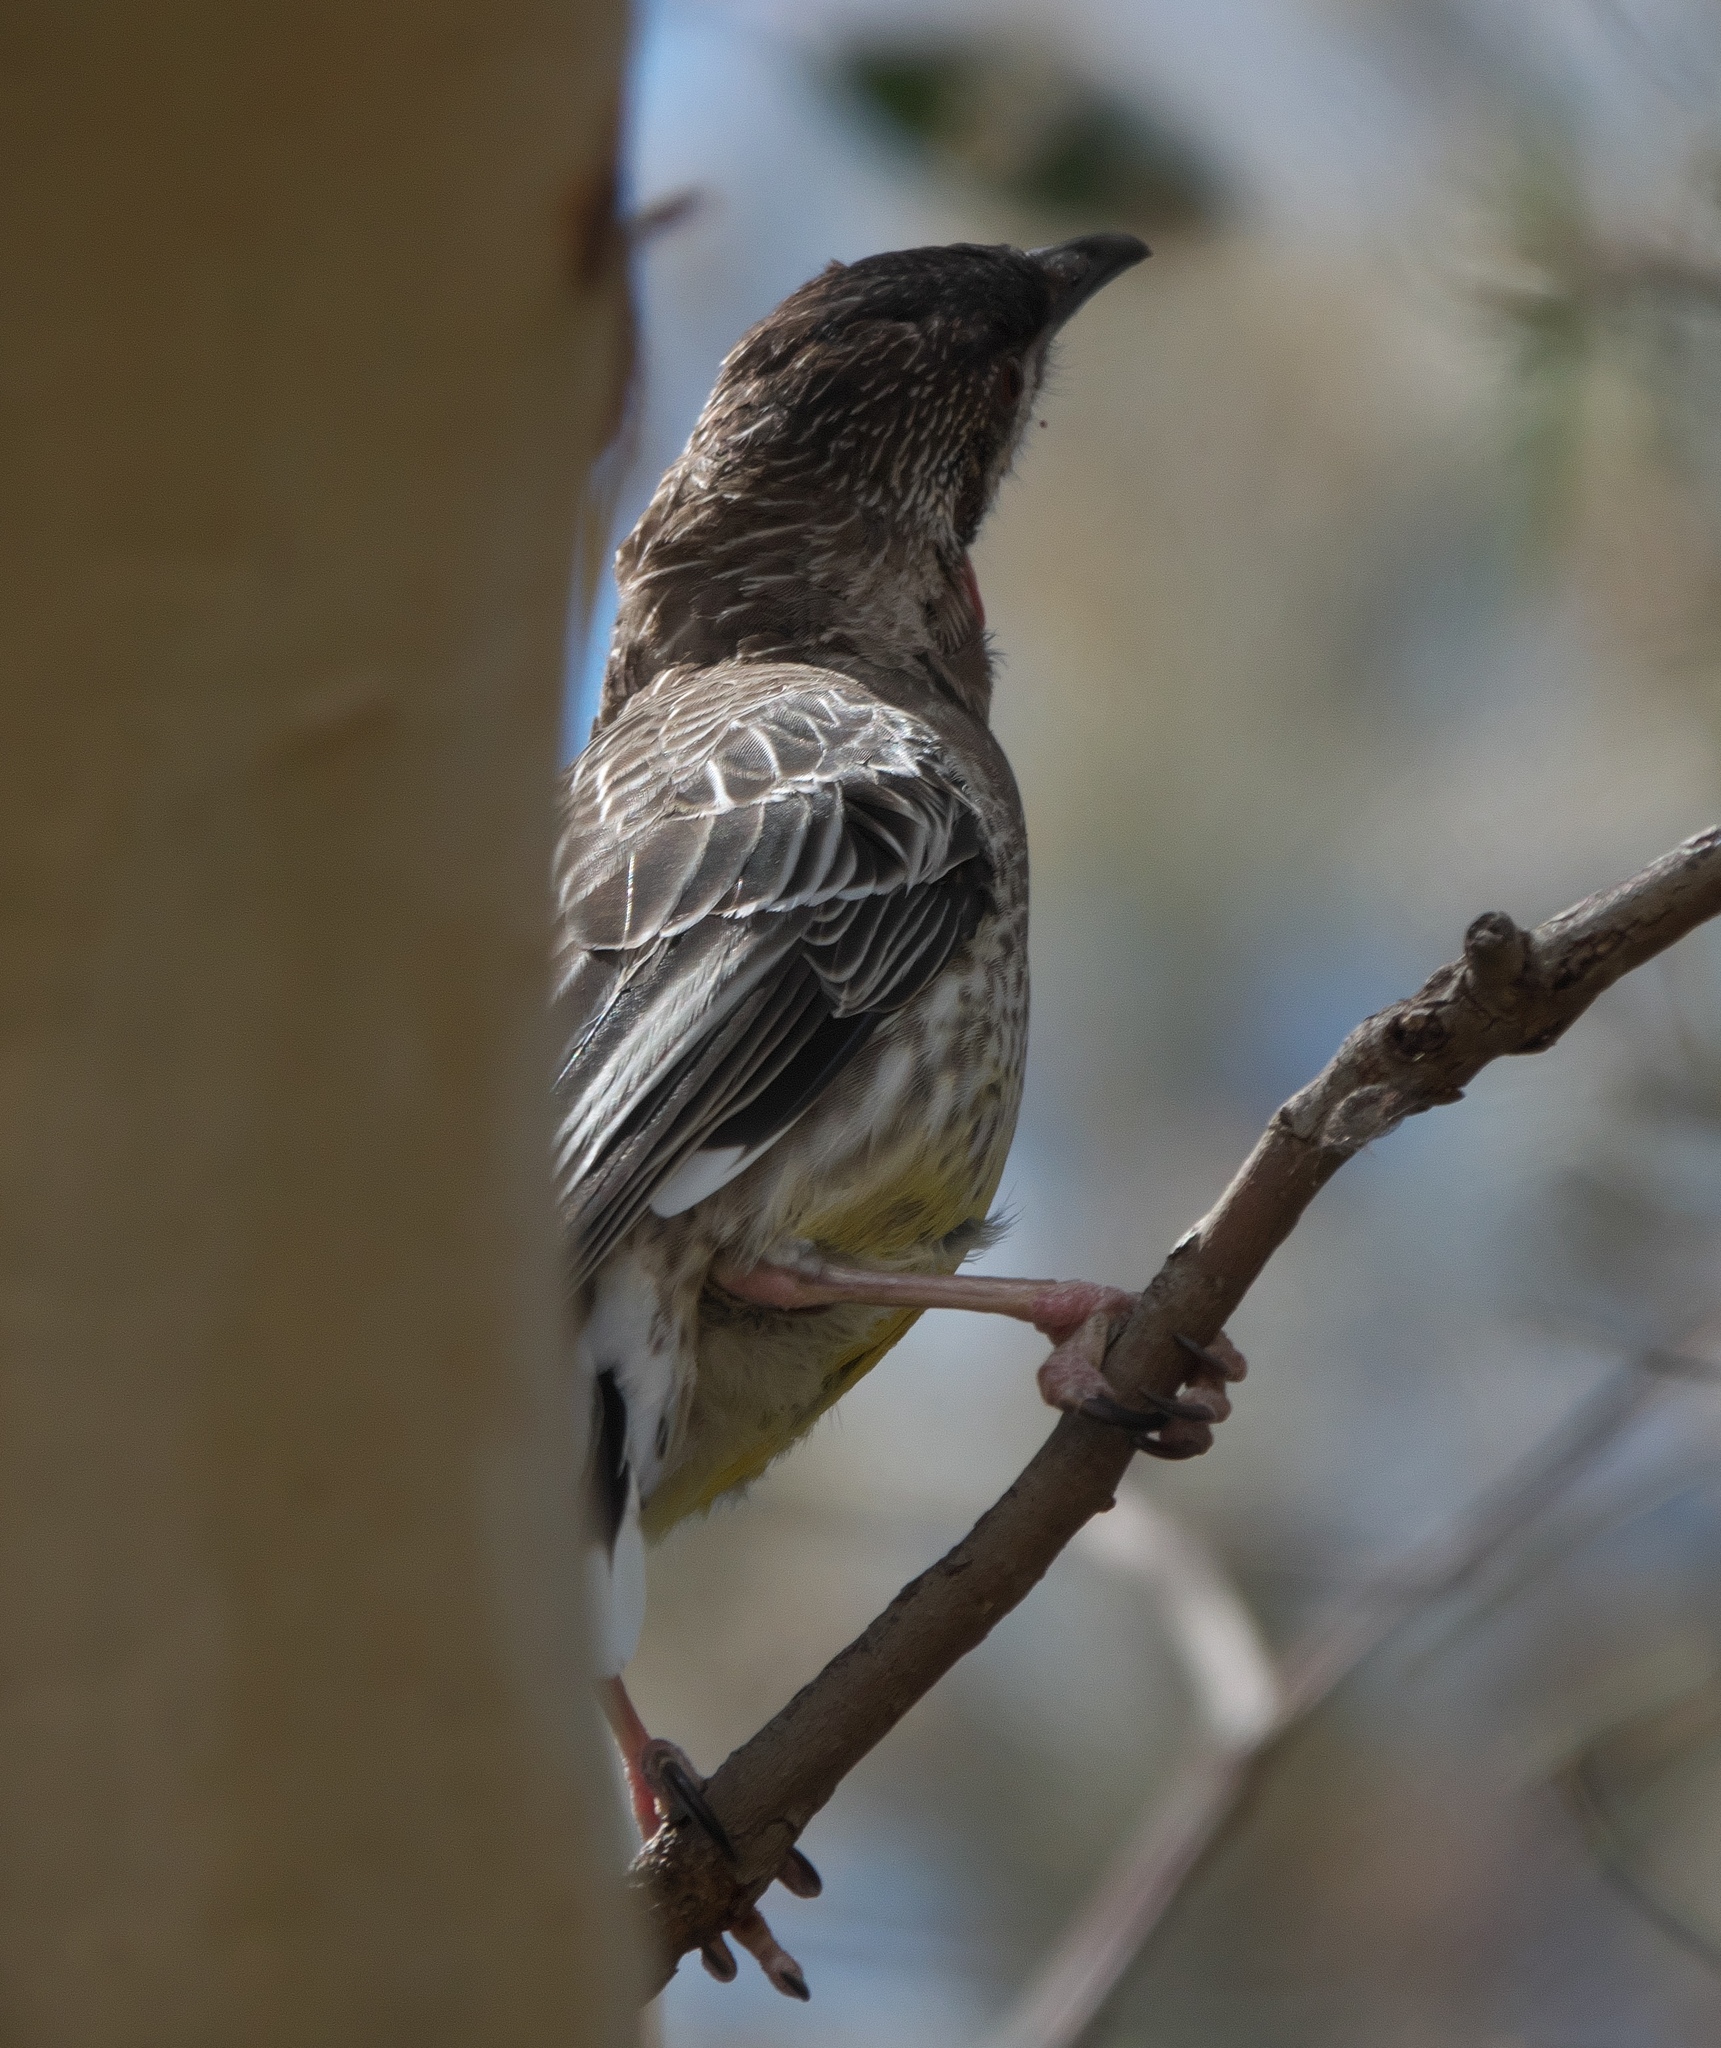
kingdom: Animalia
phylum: Chordata
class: Aves
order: Passeriformes
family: Meliphagidae
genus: Anthochaera
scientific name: Anthochaera carunculata
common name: Red wattlebird
